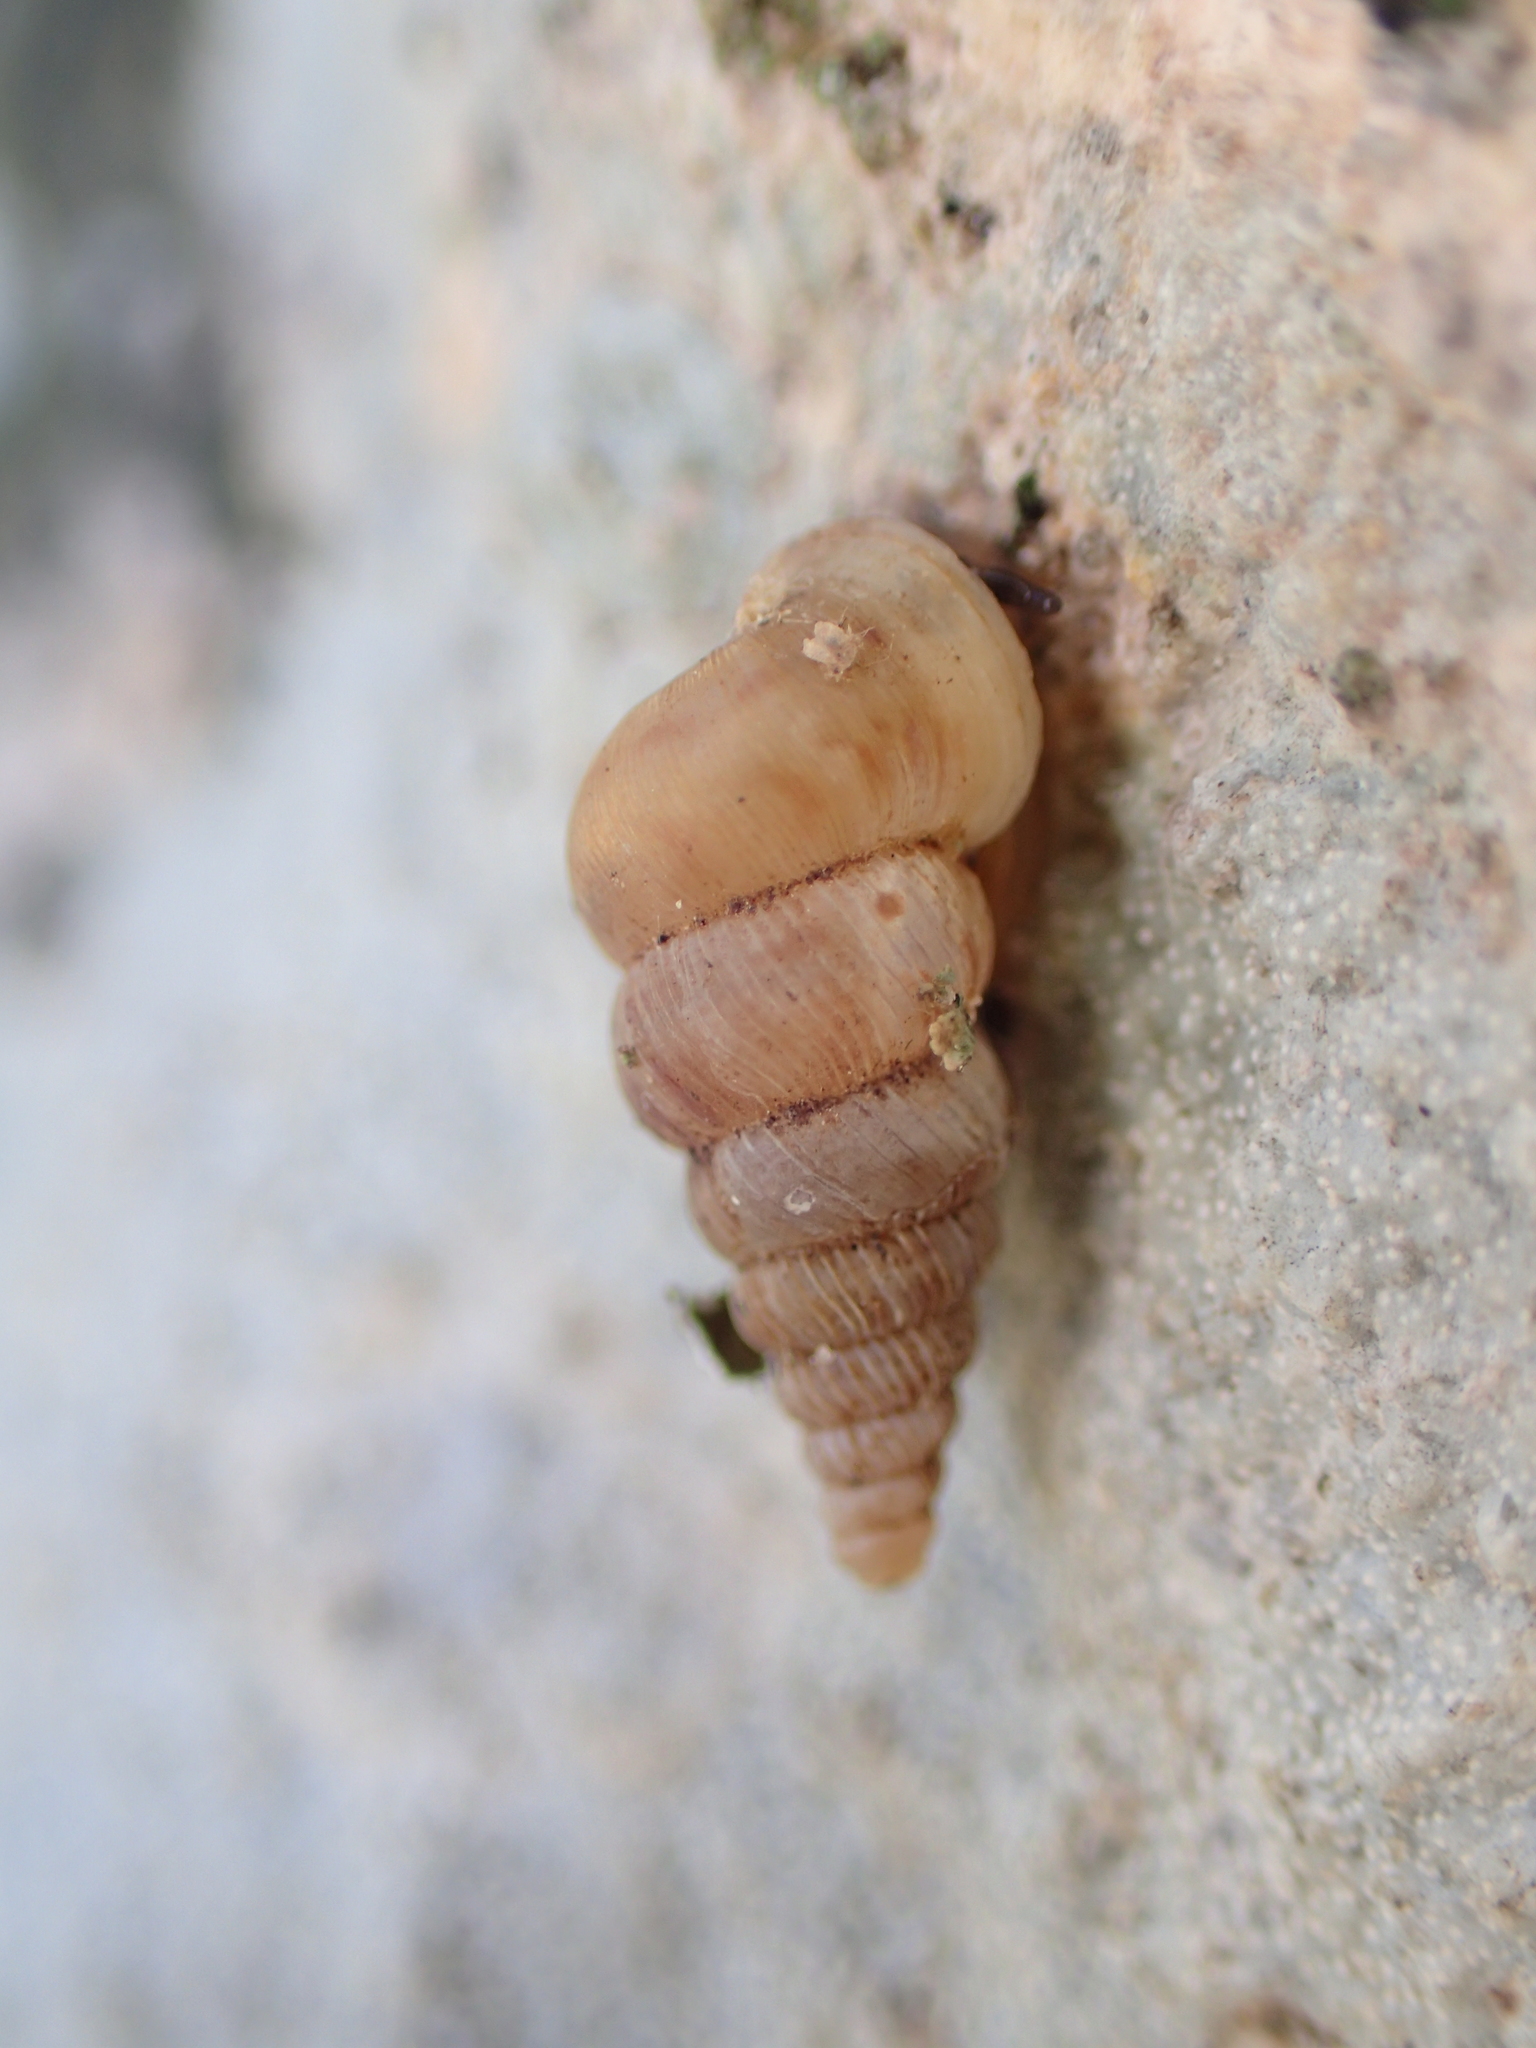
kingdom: Animalia
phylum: Mollusca
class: Gastropoda
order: Architaenioglossa
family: Cochlostomatidae
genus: Cochlostoma
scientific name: Cochlostoma septemspirale
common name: Seven-whorl snail
